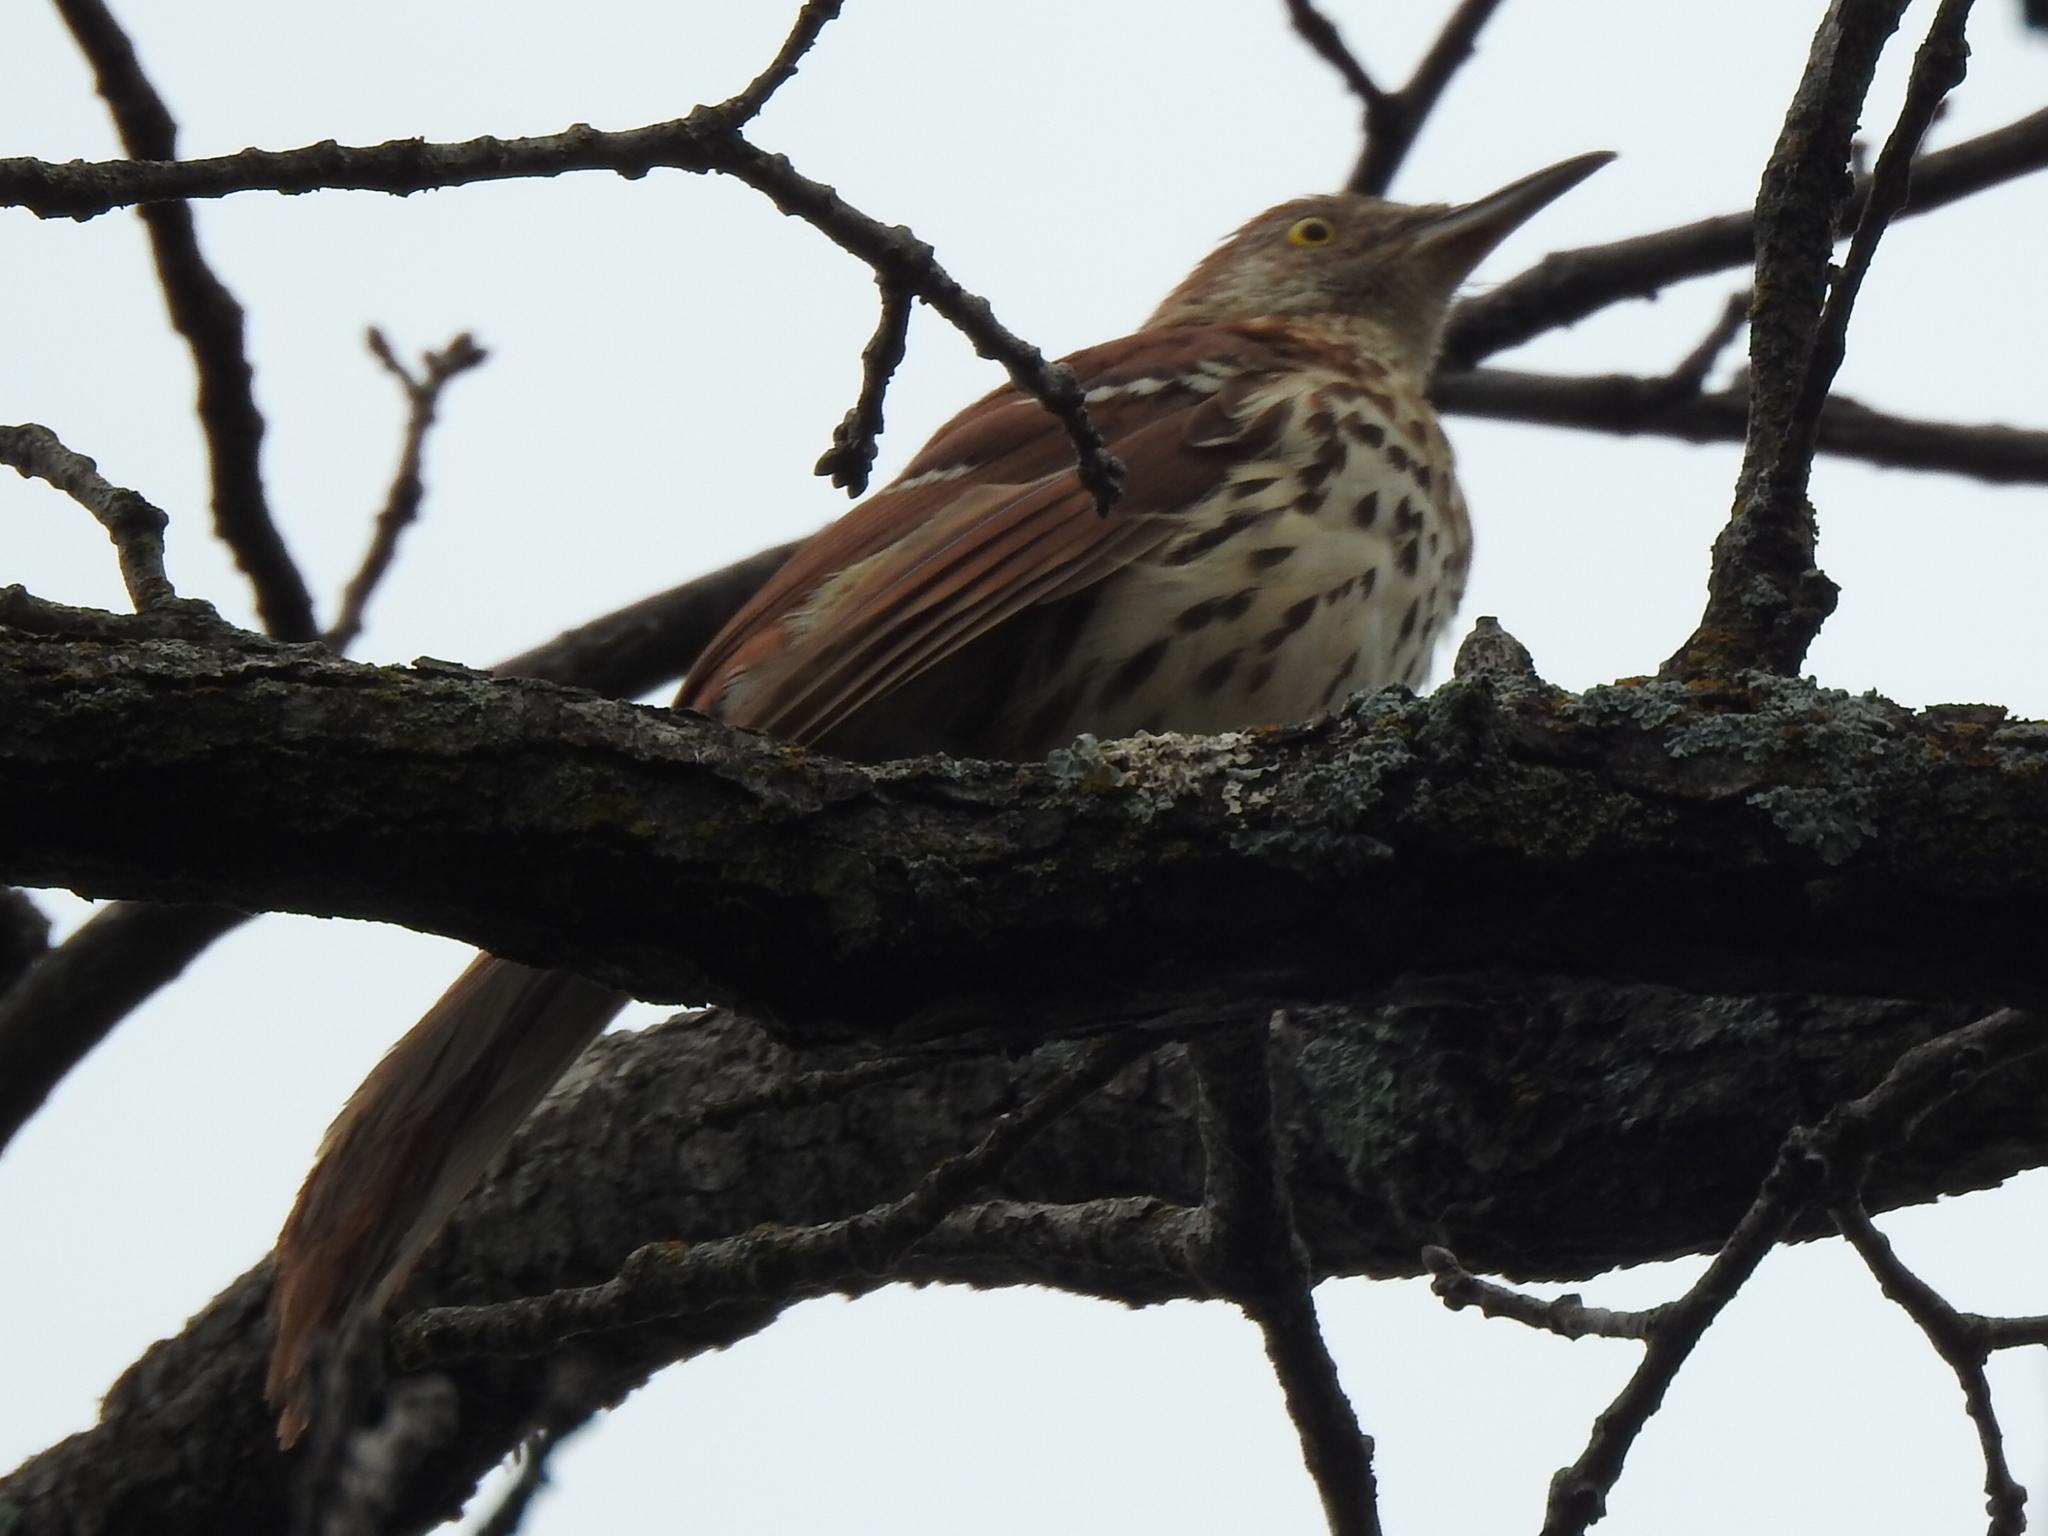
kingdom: Animalia
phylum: Chordata
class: Aves
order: Passeriformes
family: Mimidae
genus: Toxostoma
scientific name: Toxostoma rufum
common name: Brown thrasher
